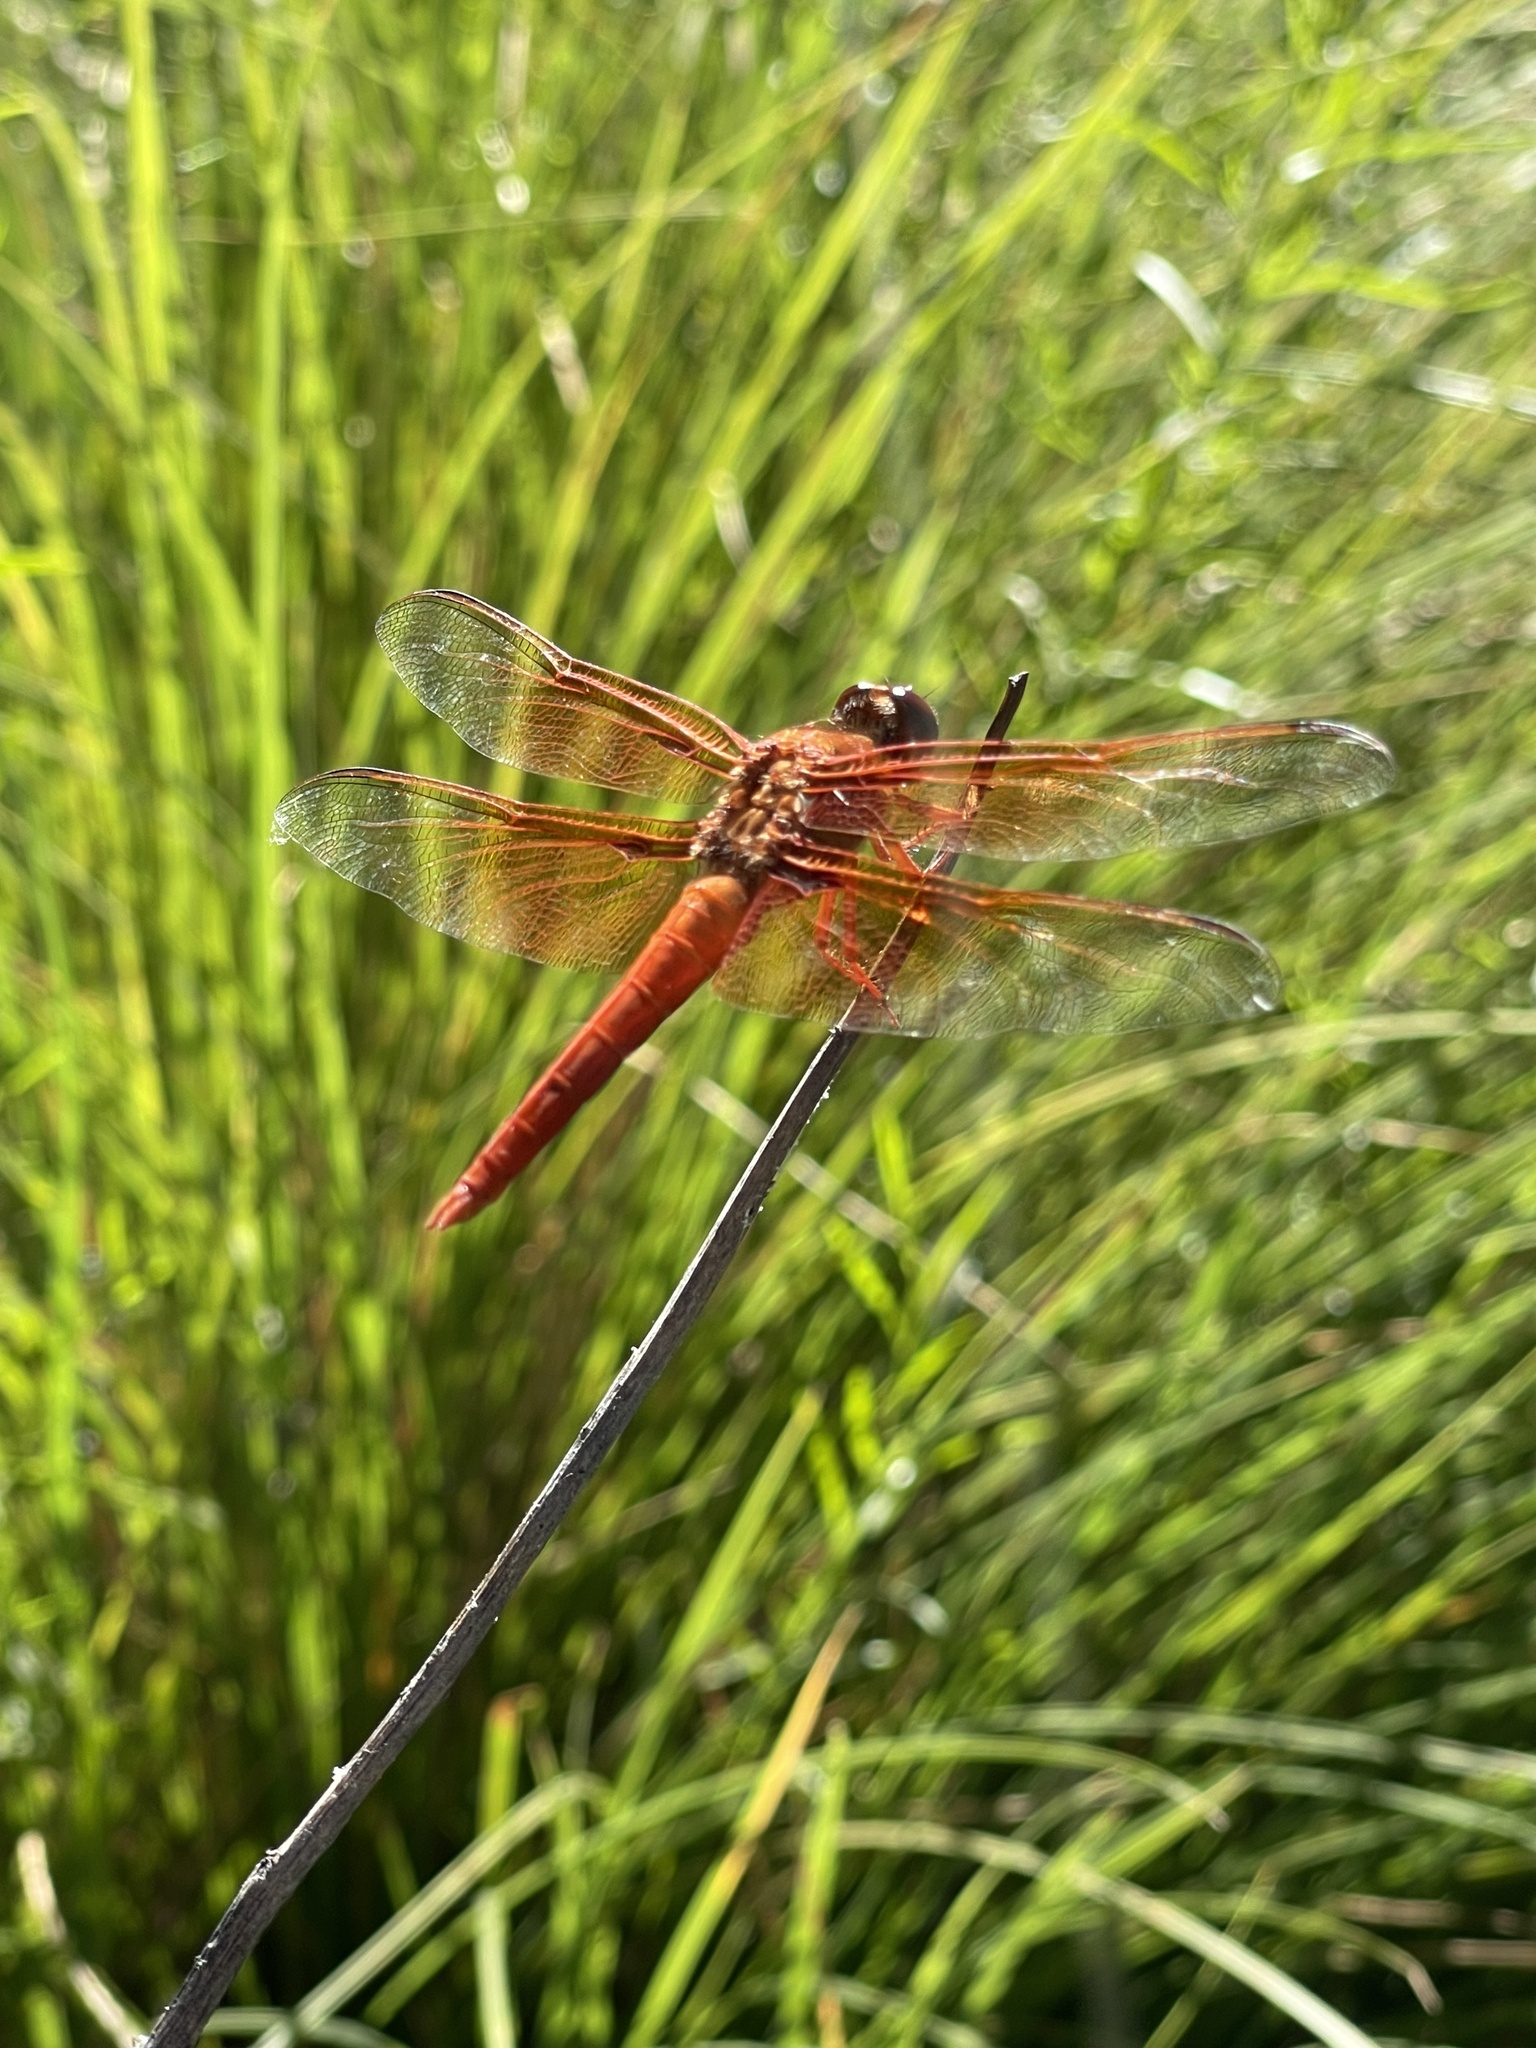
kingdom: Animalia
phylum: Arthropoda
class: Insecta
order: Odonata
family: Libellulidae
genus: Libellula
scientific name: Libellula saturata
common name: Flame skimmer
